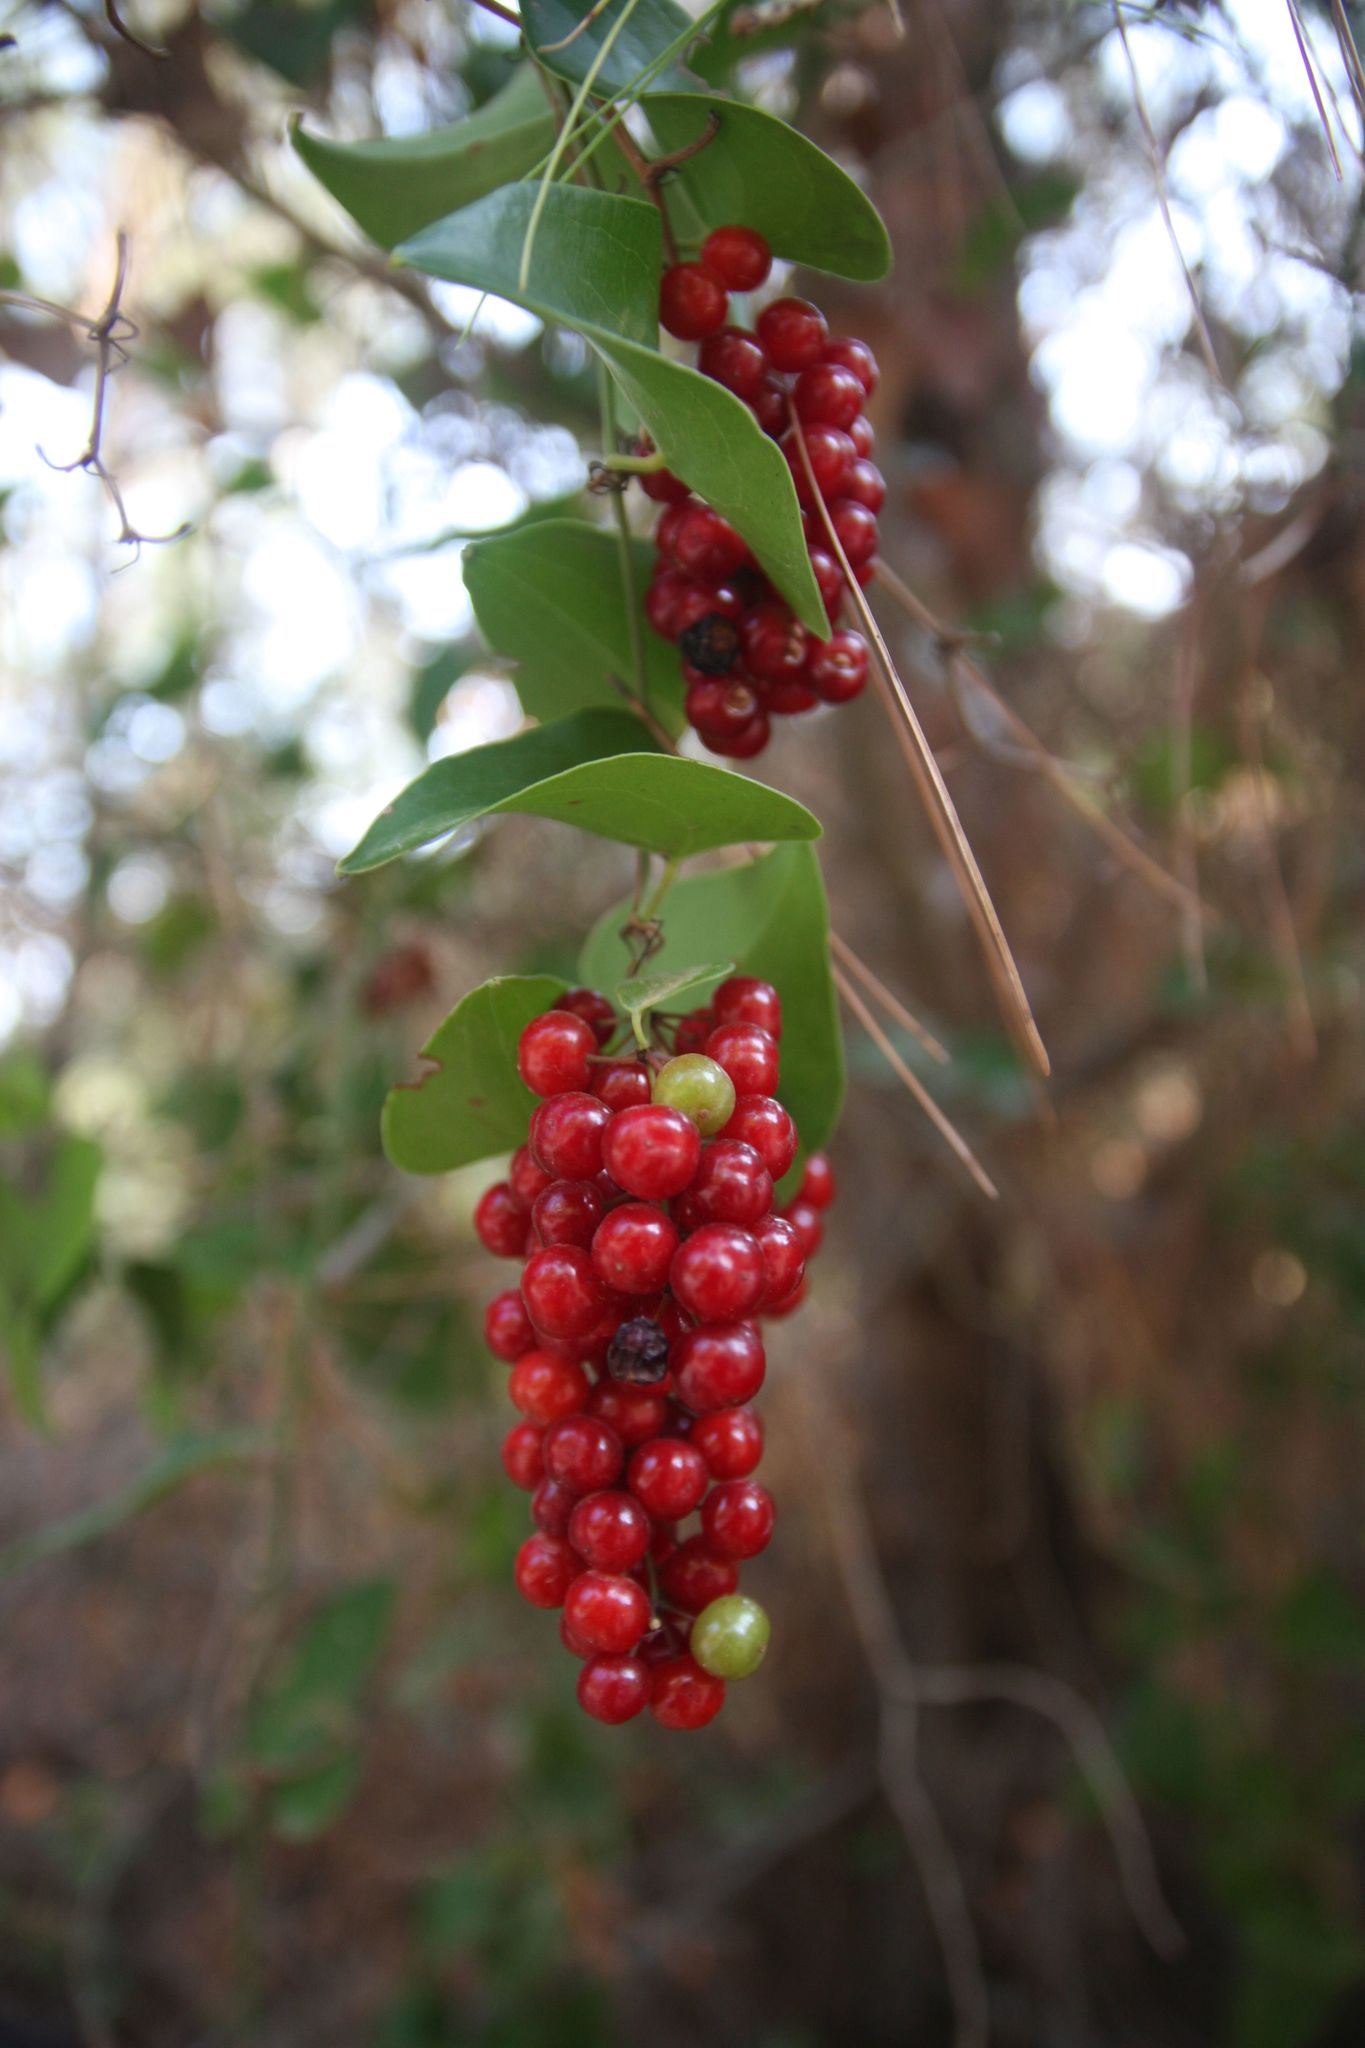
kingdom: Plantae
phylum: Tracheophyta
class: Liliopsida
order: Liliales
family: Smilacaceae
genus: Smilax
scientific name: Smilax aspera
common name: Common smilax
